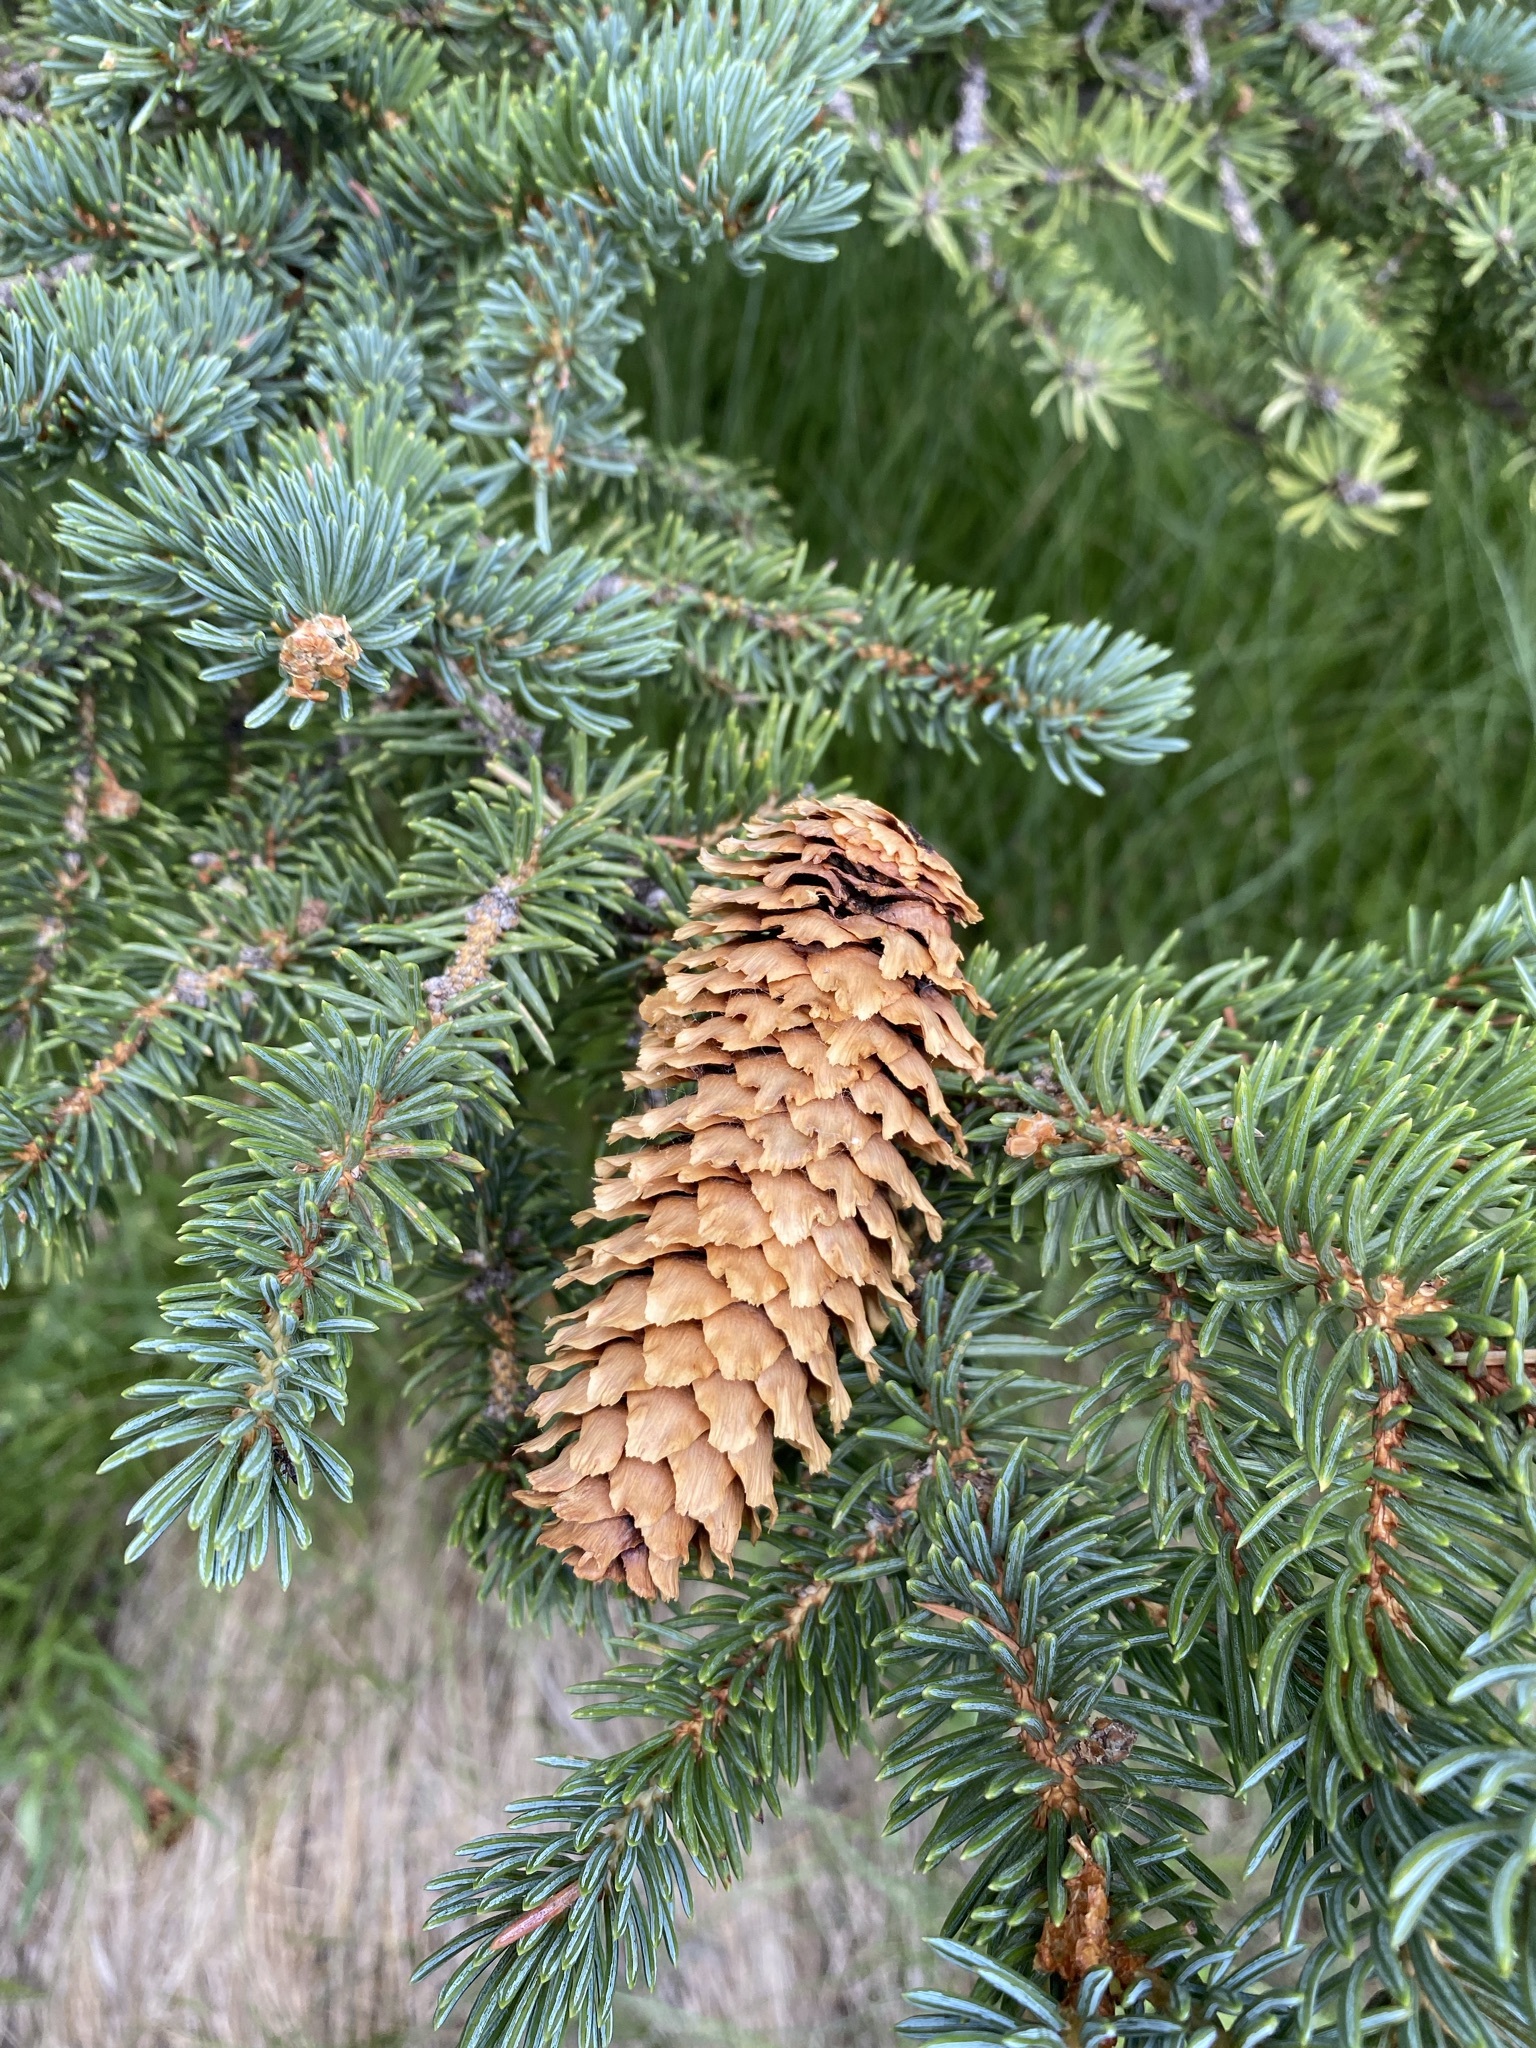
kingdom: Plantae
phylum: Tracheophyta
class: Pinopsida
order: Pinales
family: Pinaceae
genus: Picea
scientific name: Picea pungens
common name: Colorado spruce
